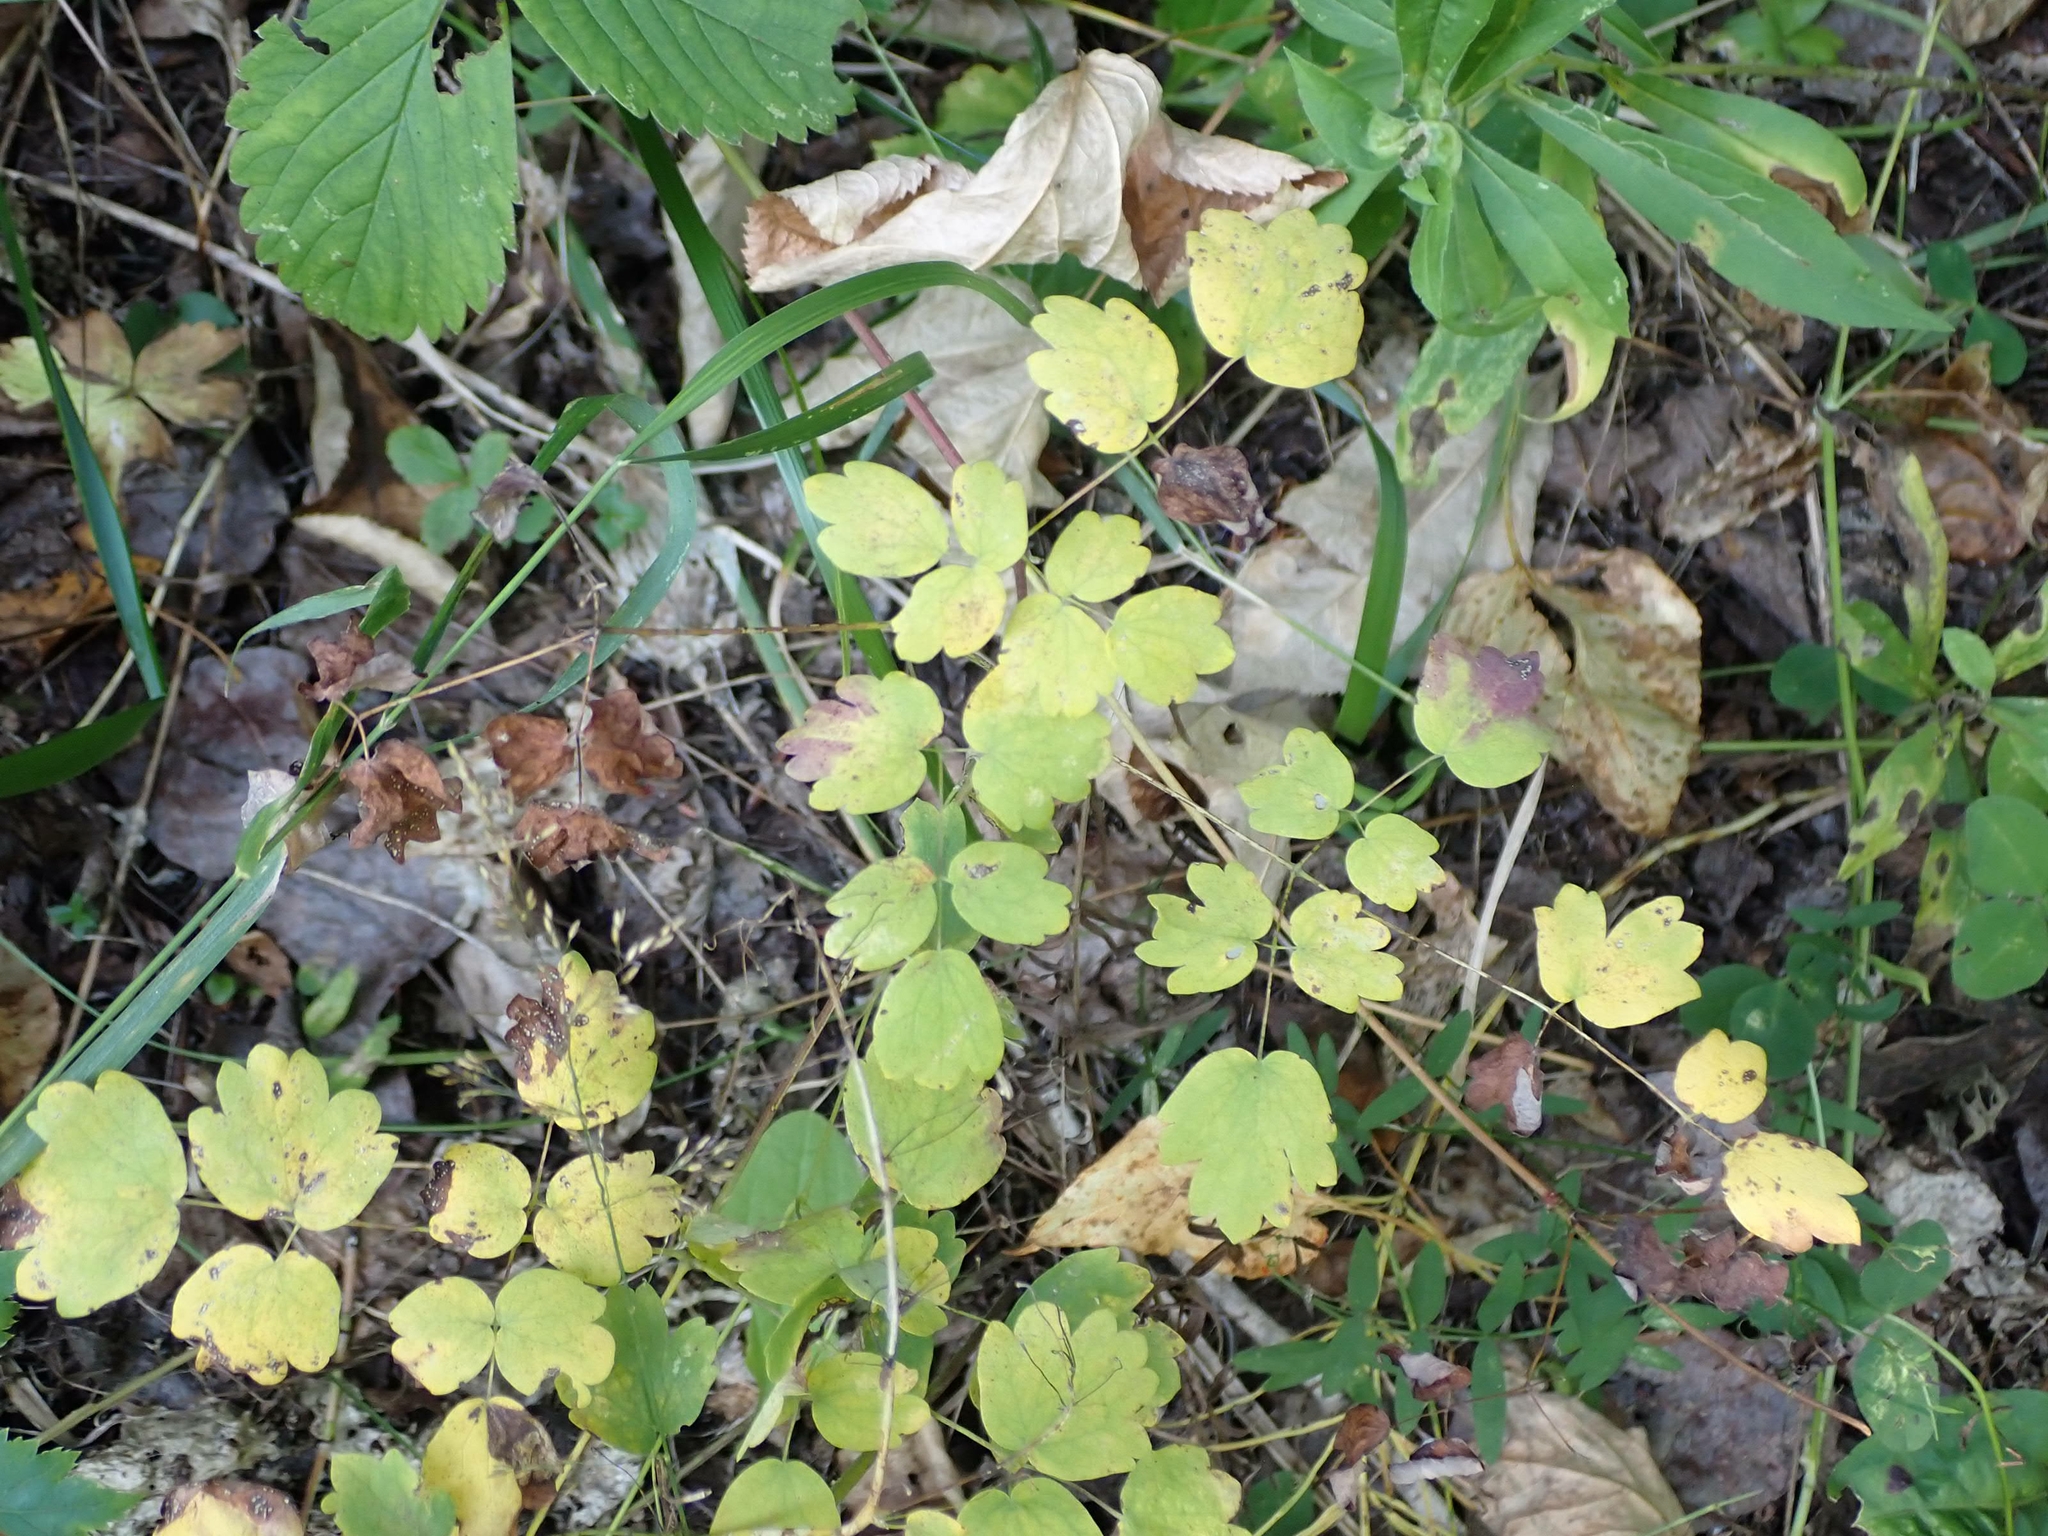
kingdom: Plantae
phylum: Tracheophyta
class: Magnoliopsida
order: Ranunculales
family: Ranunculaceae
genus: Thalictrum
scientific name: Thalictrum venulosum
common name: Early meadow-rue
